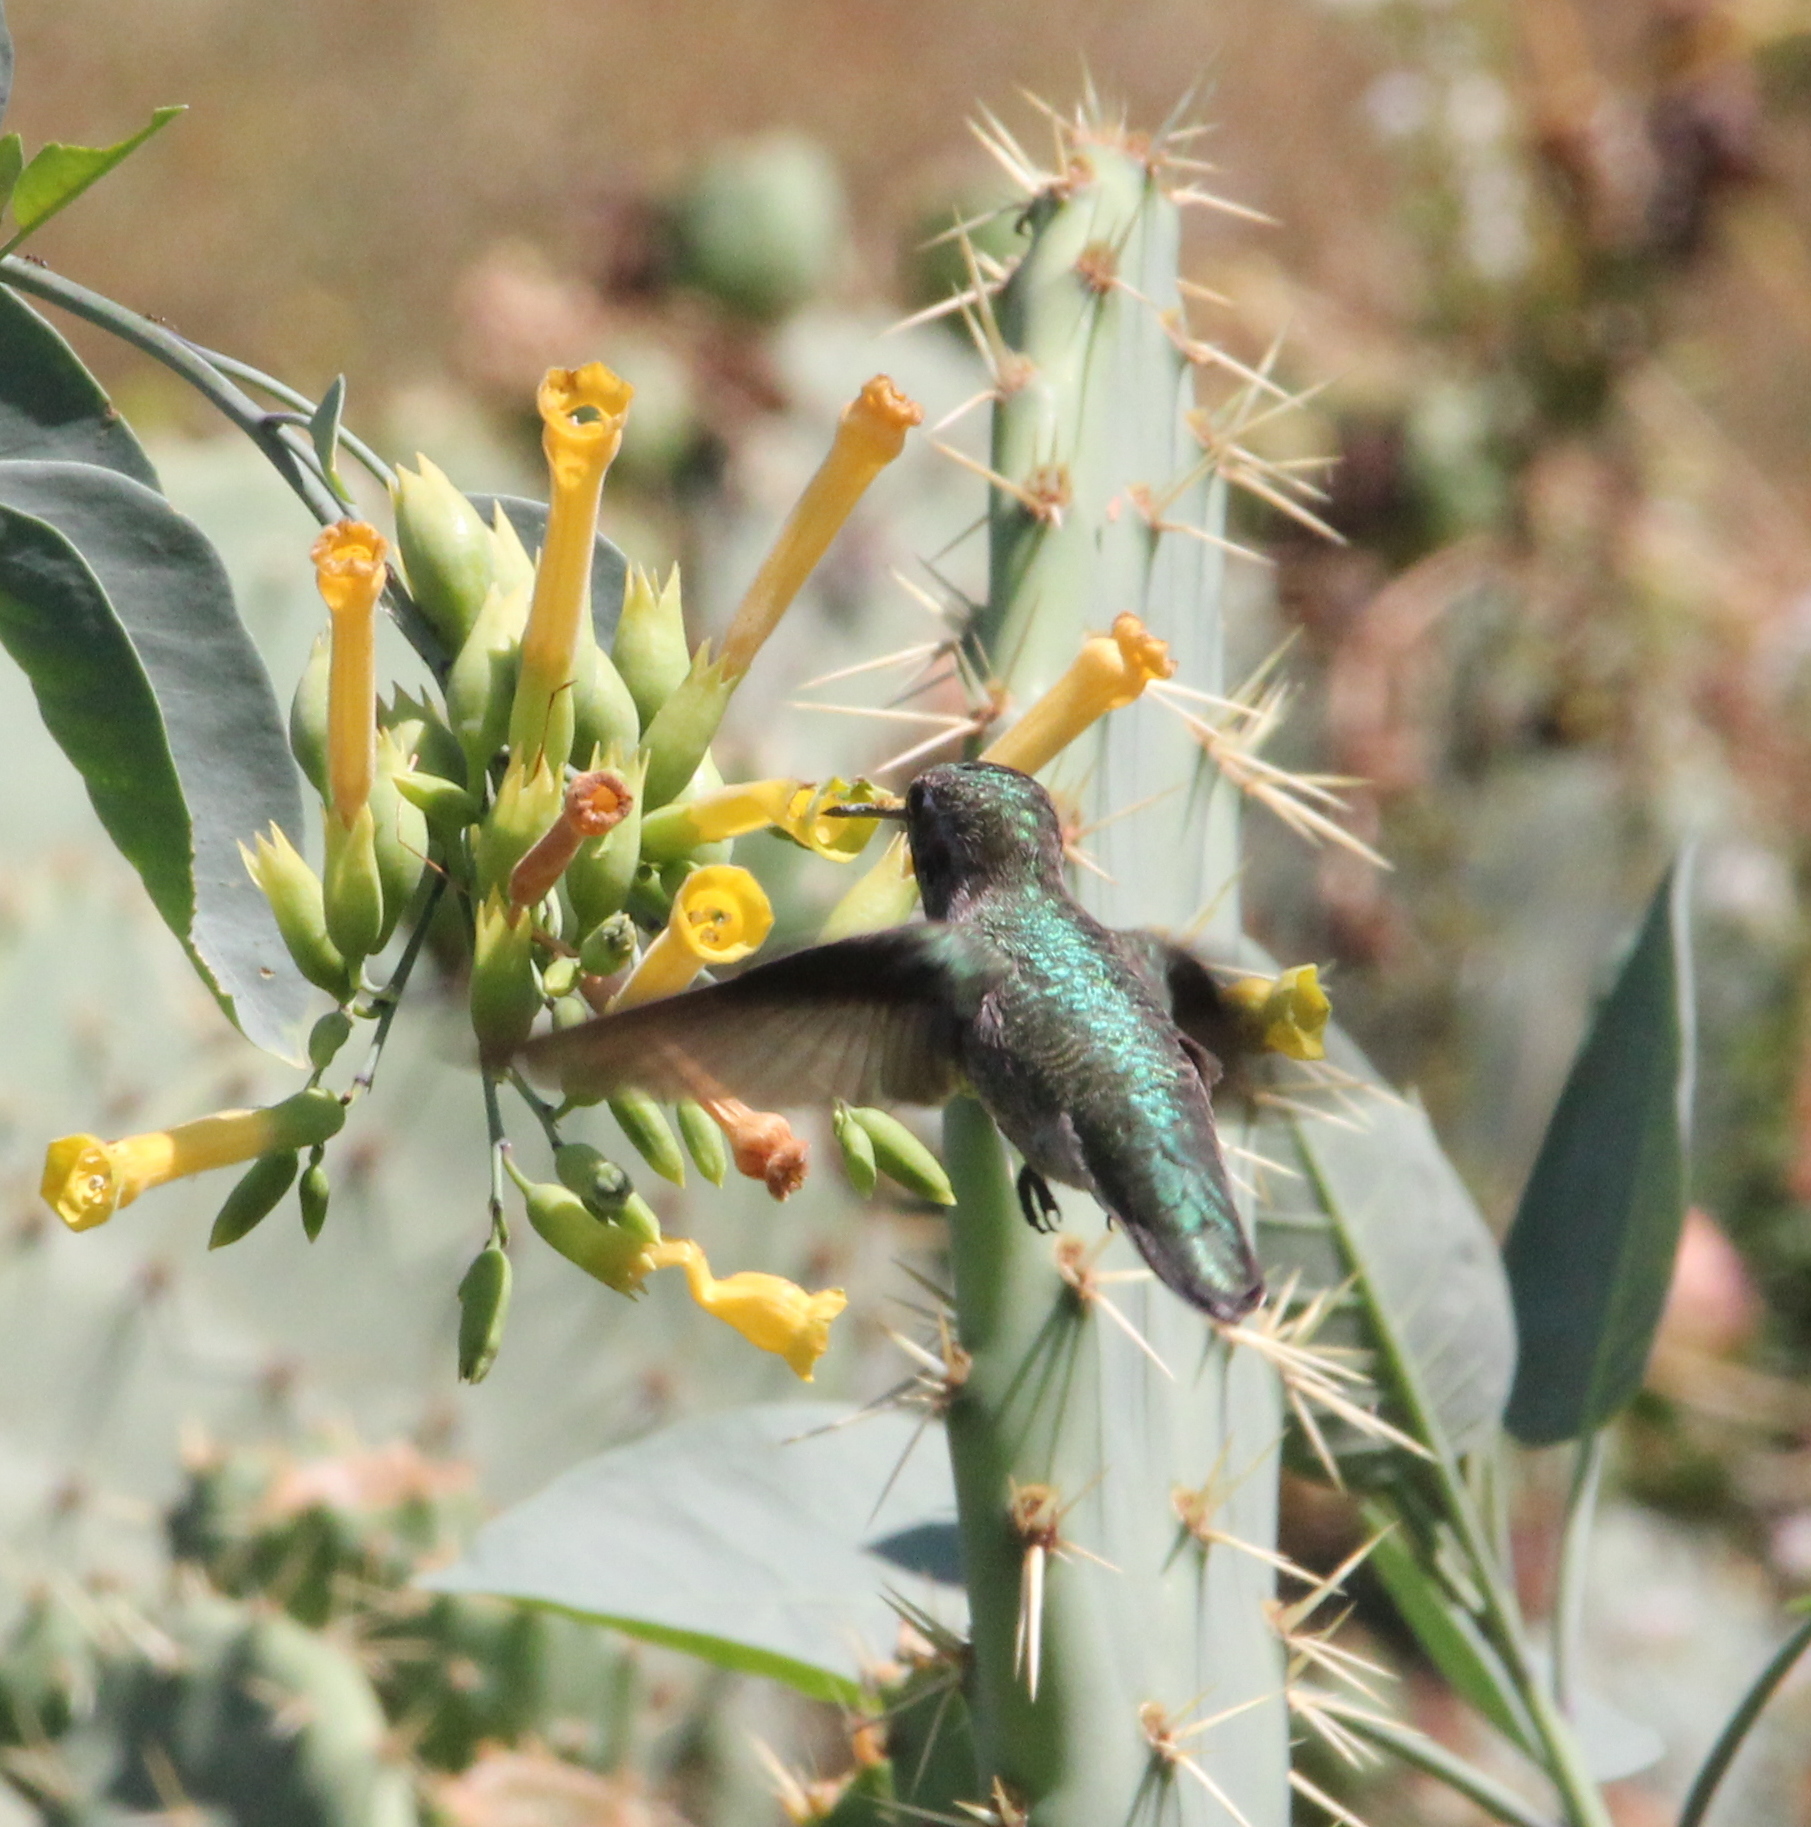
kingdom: Animalia
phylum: Chordata
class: Aves
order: Apodiformes
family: Trochilidae
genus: Calypte
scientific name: Calypte anna
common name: Anna's hummingbird
